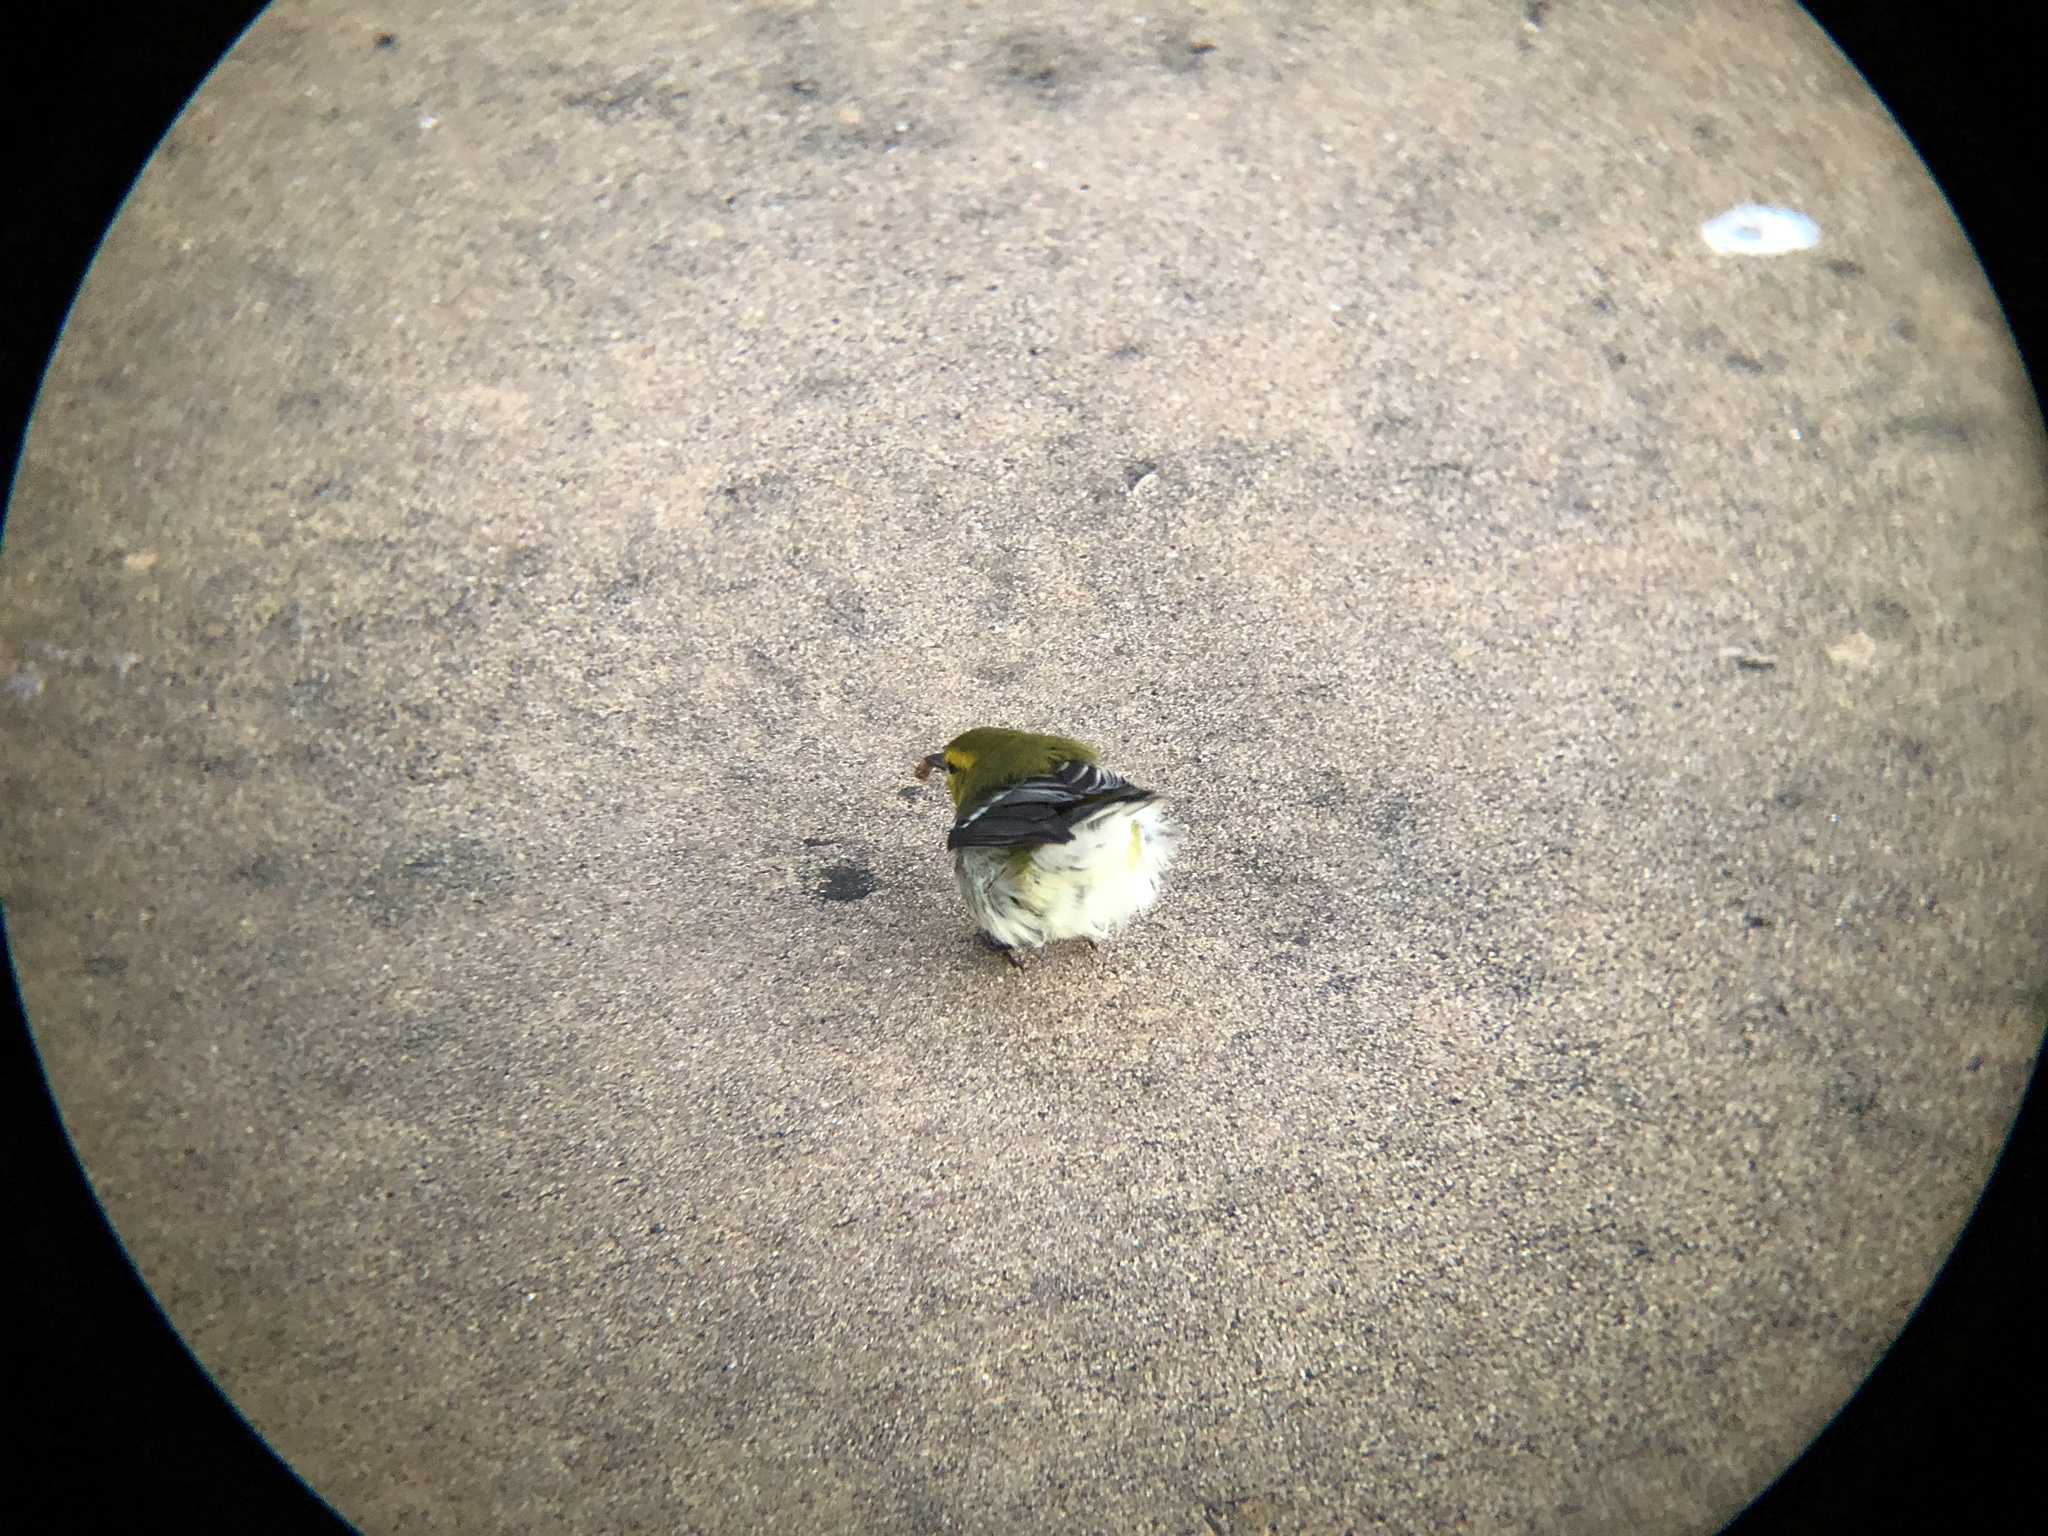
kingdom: Animalia
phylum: Chordata
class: Aves
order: Passeriformes
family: Parulidae
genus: Setophaga
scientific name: Setophaga virens
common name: Black-throated green warbler
